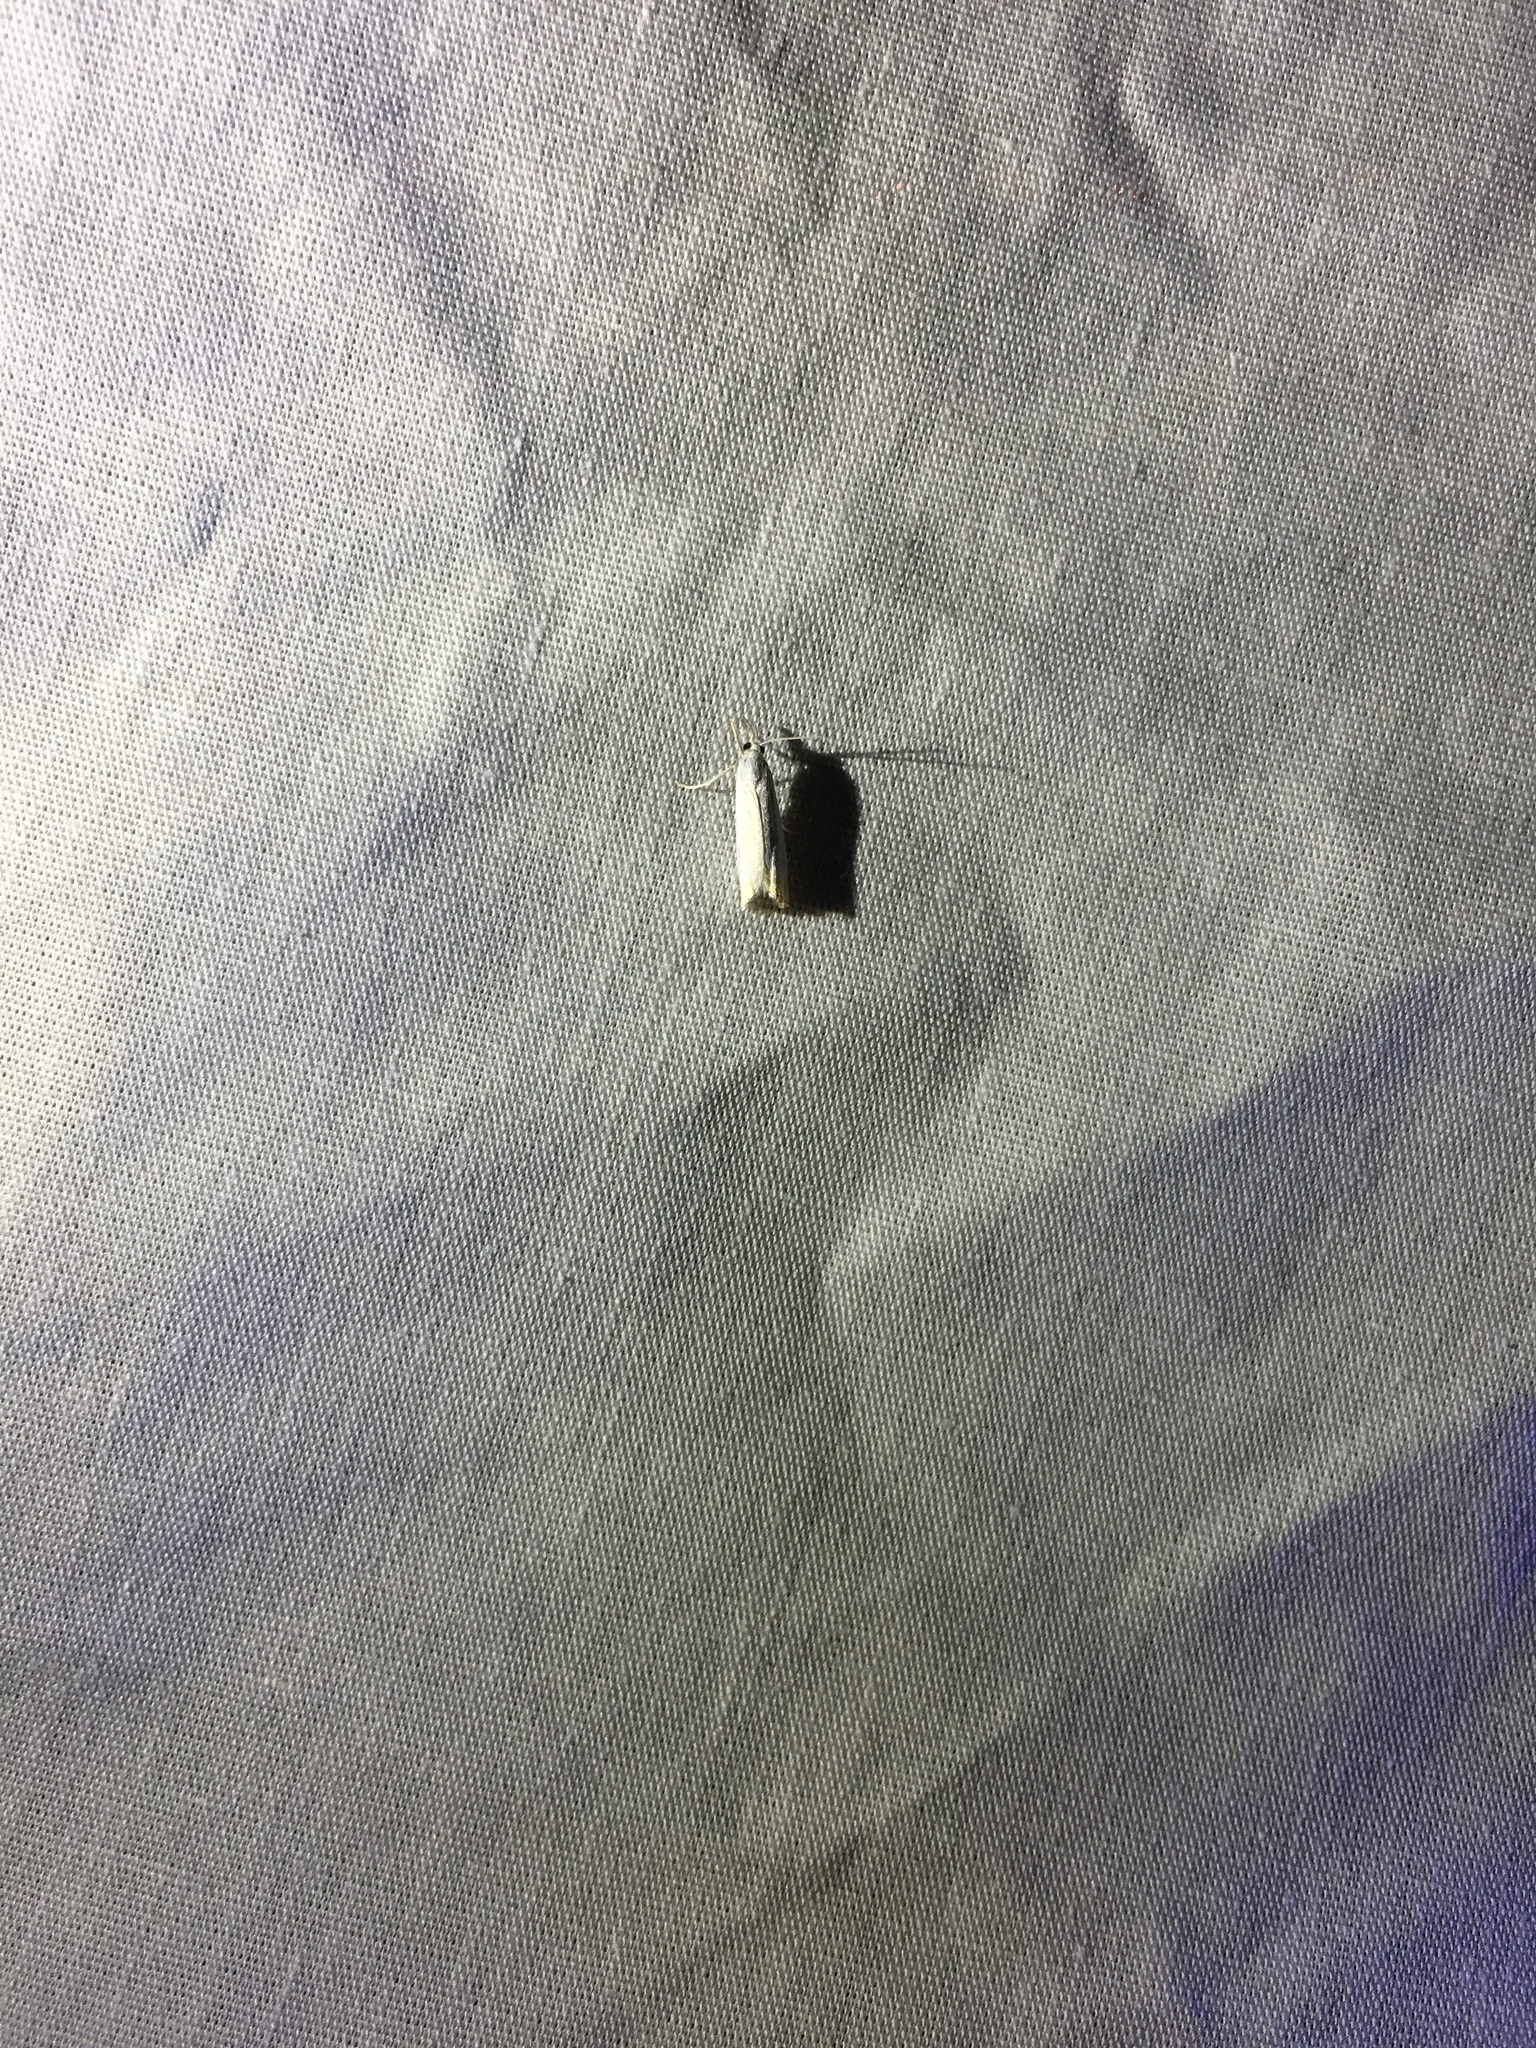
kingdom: Animalia
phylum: Arthropoda
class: Insecta
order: Lepidoptera
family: Crambidae
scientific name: Crambidae
